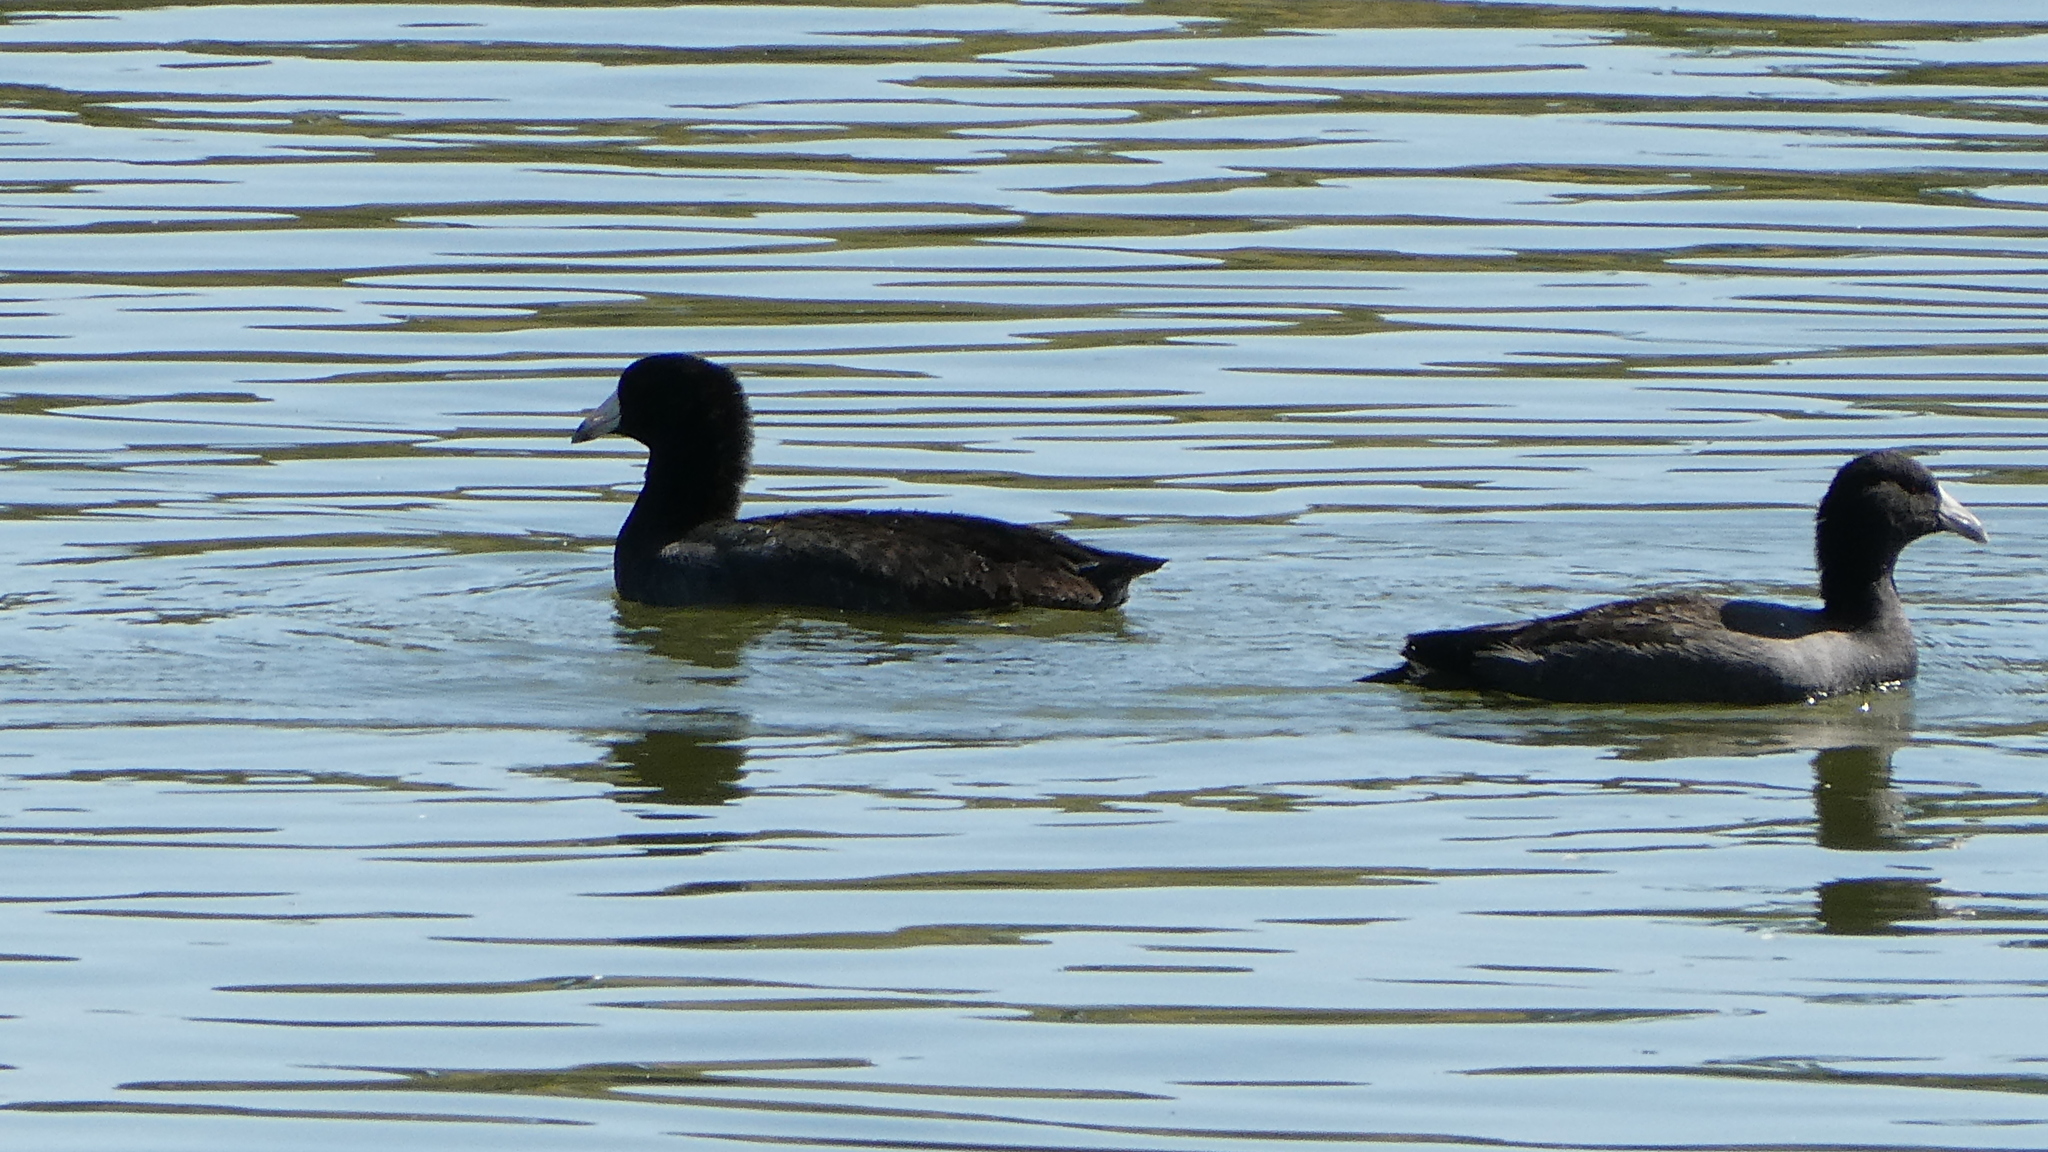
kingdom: Animalia
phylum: Chordata
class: Aves
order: Gruiformes
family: Rallidae
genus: Fulica
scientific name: Fulica americana
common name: American coot
